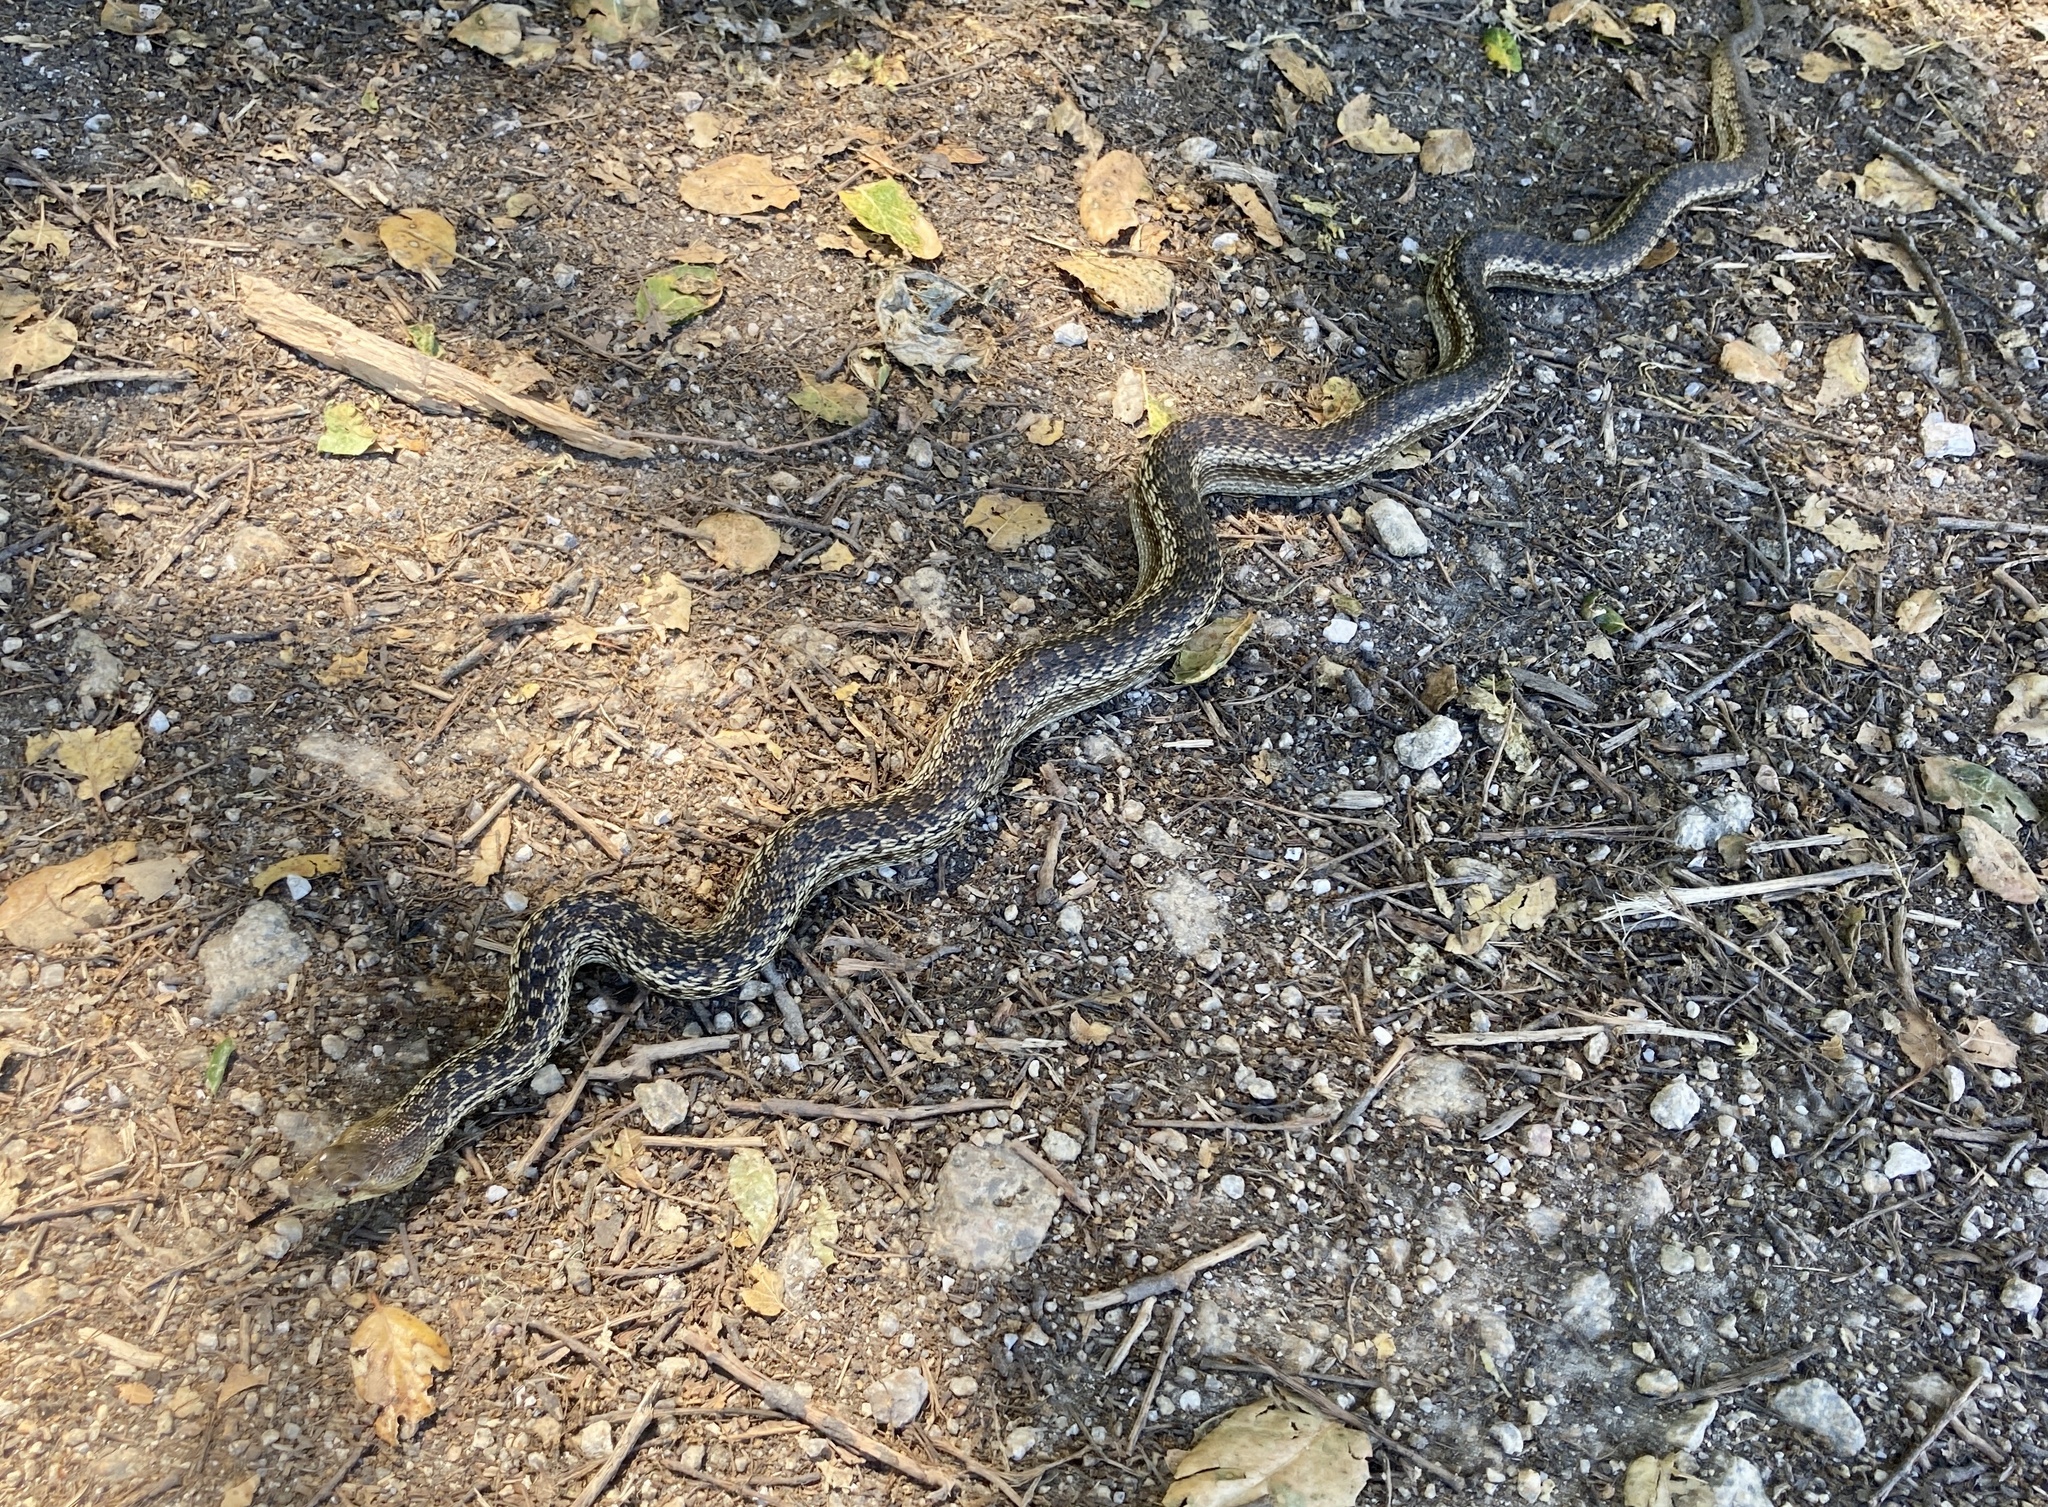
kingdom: Animalia
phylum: Chordata
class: Squamata
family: Colubridae
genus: Pituophis
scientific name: Pituophis catenifer
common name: Gopher snake
